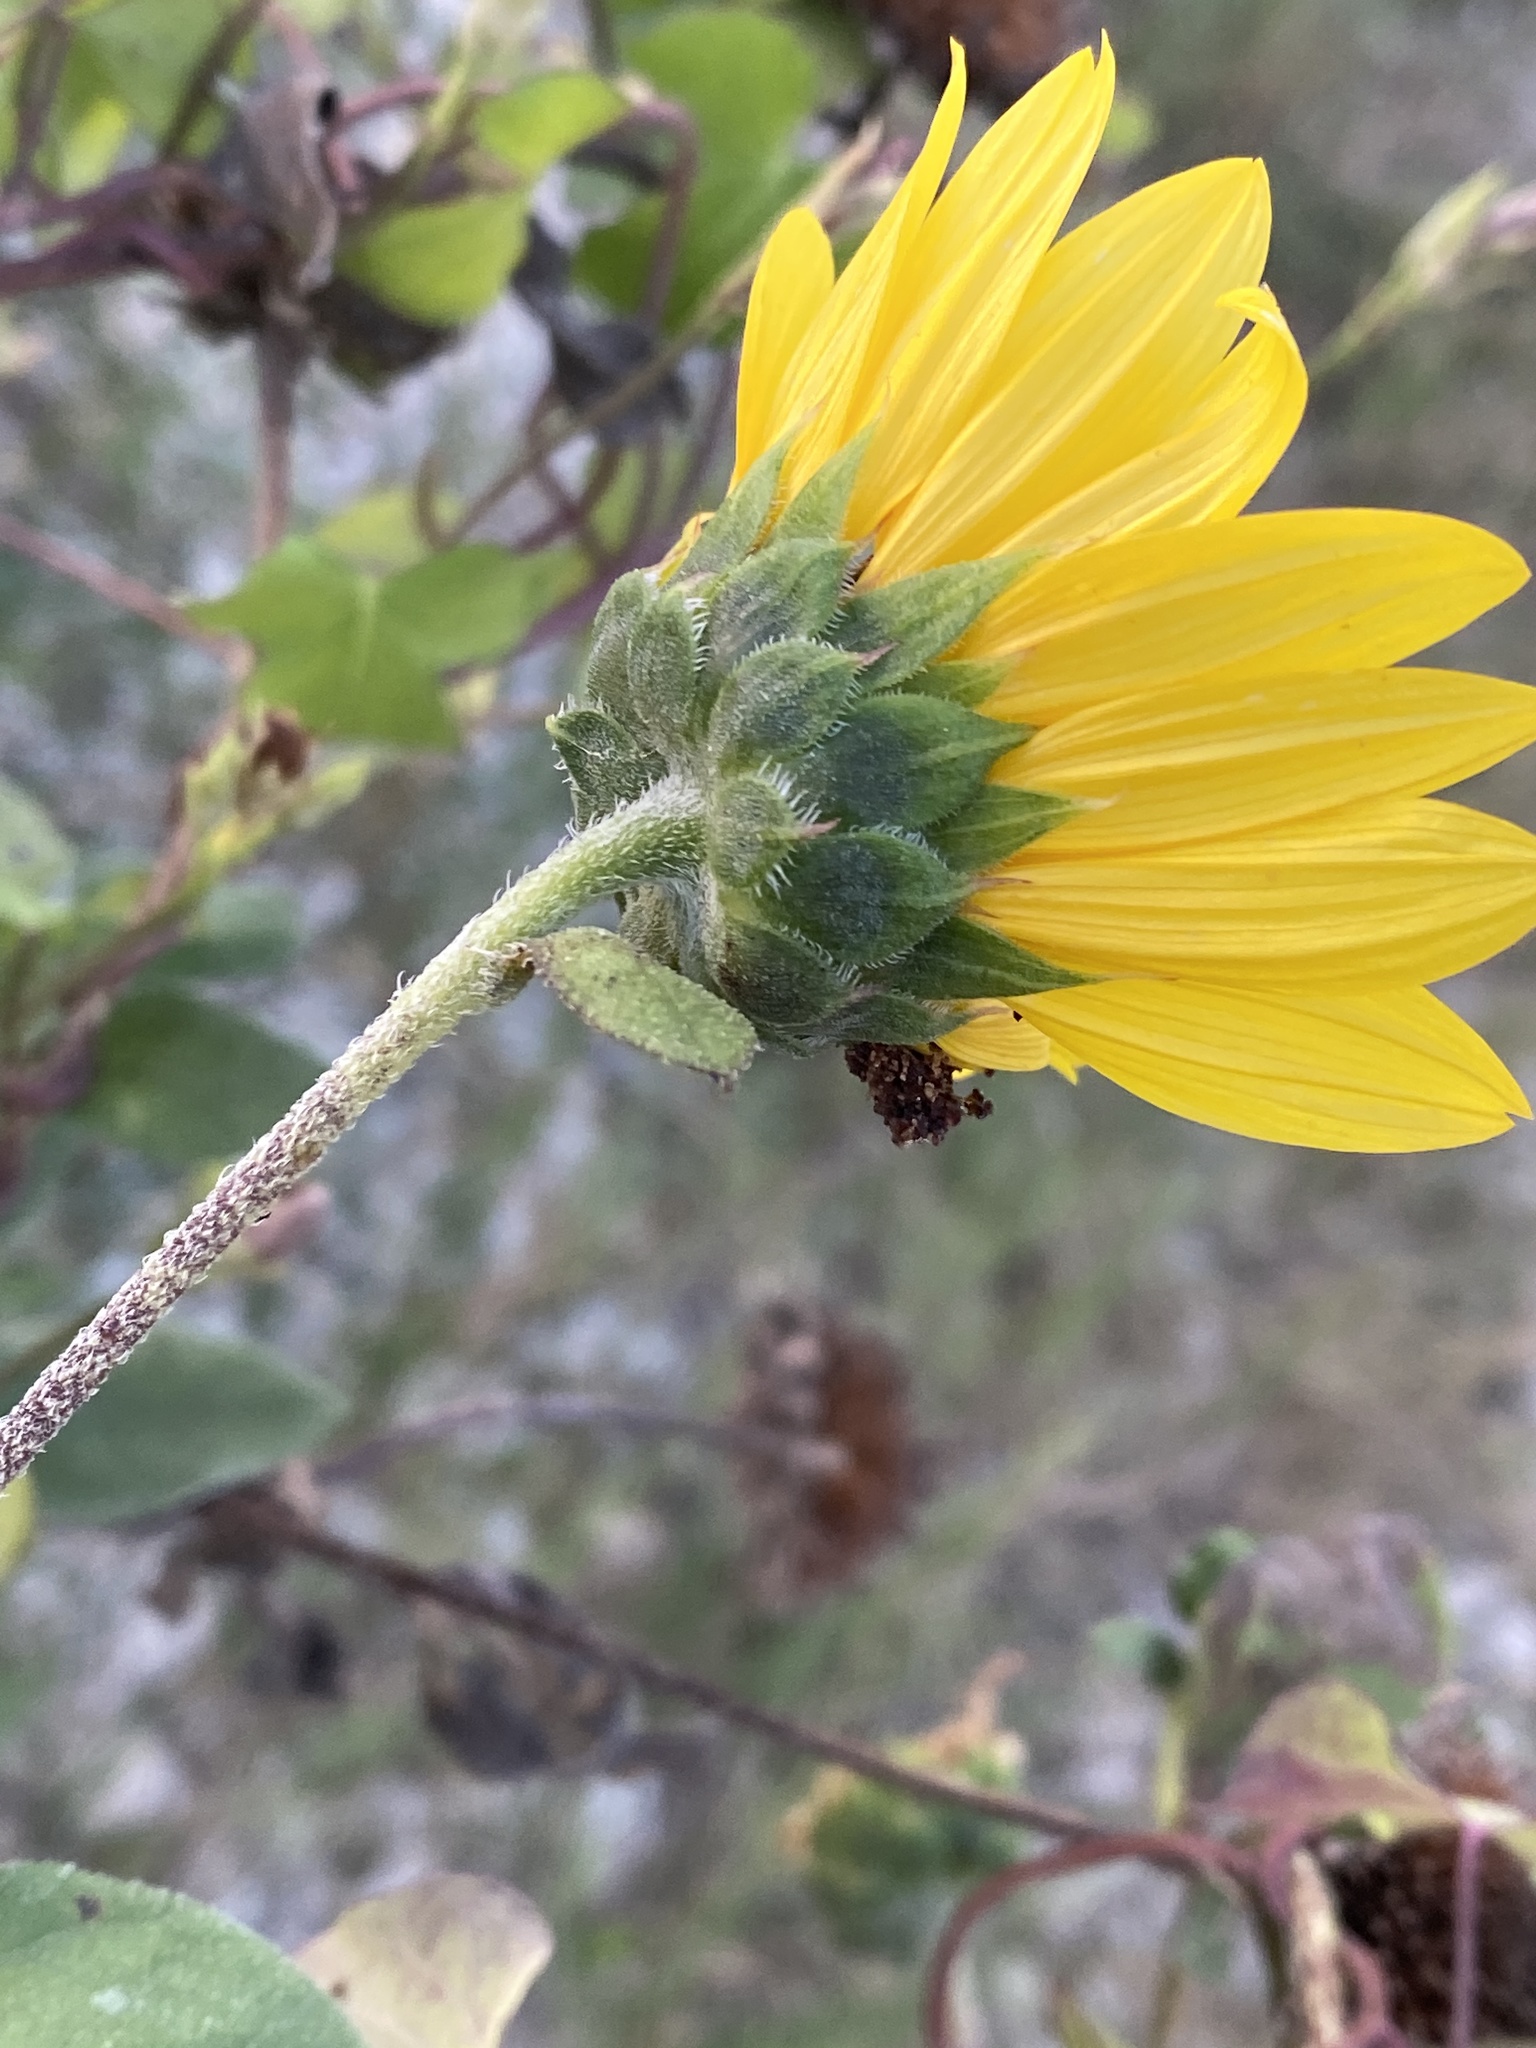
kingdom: Plantae
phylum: Tracheophyta
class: Magnoliopsida
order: Asterales
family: Asteraceae
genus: Helianthus
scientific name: Helianthus annuus
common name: Sunflower
